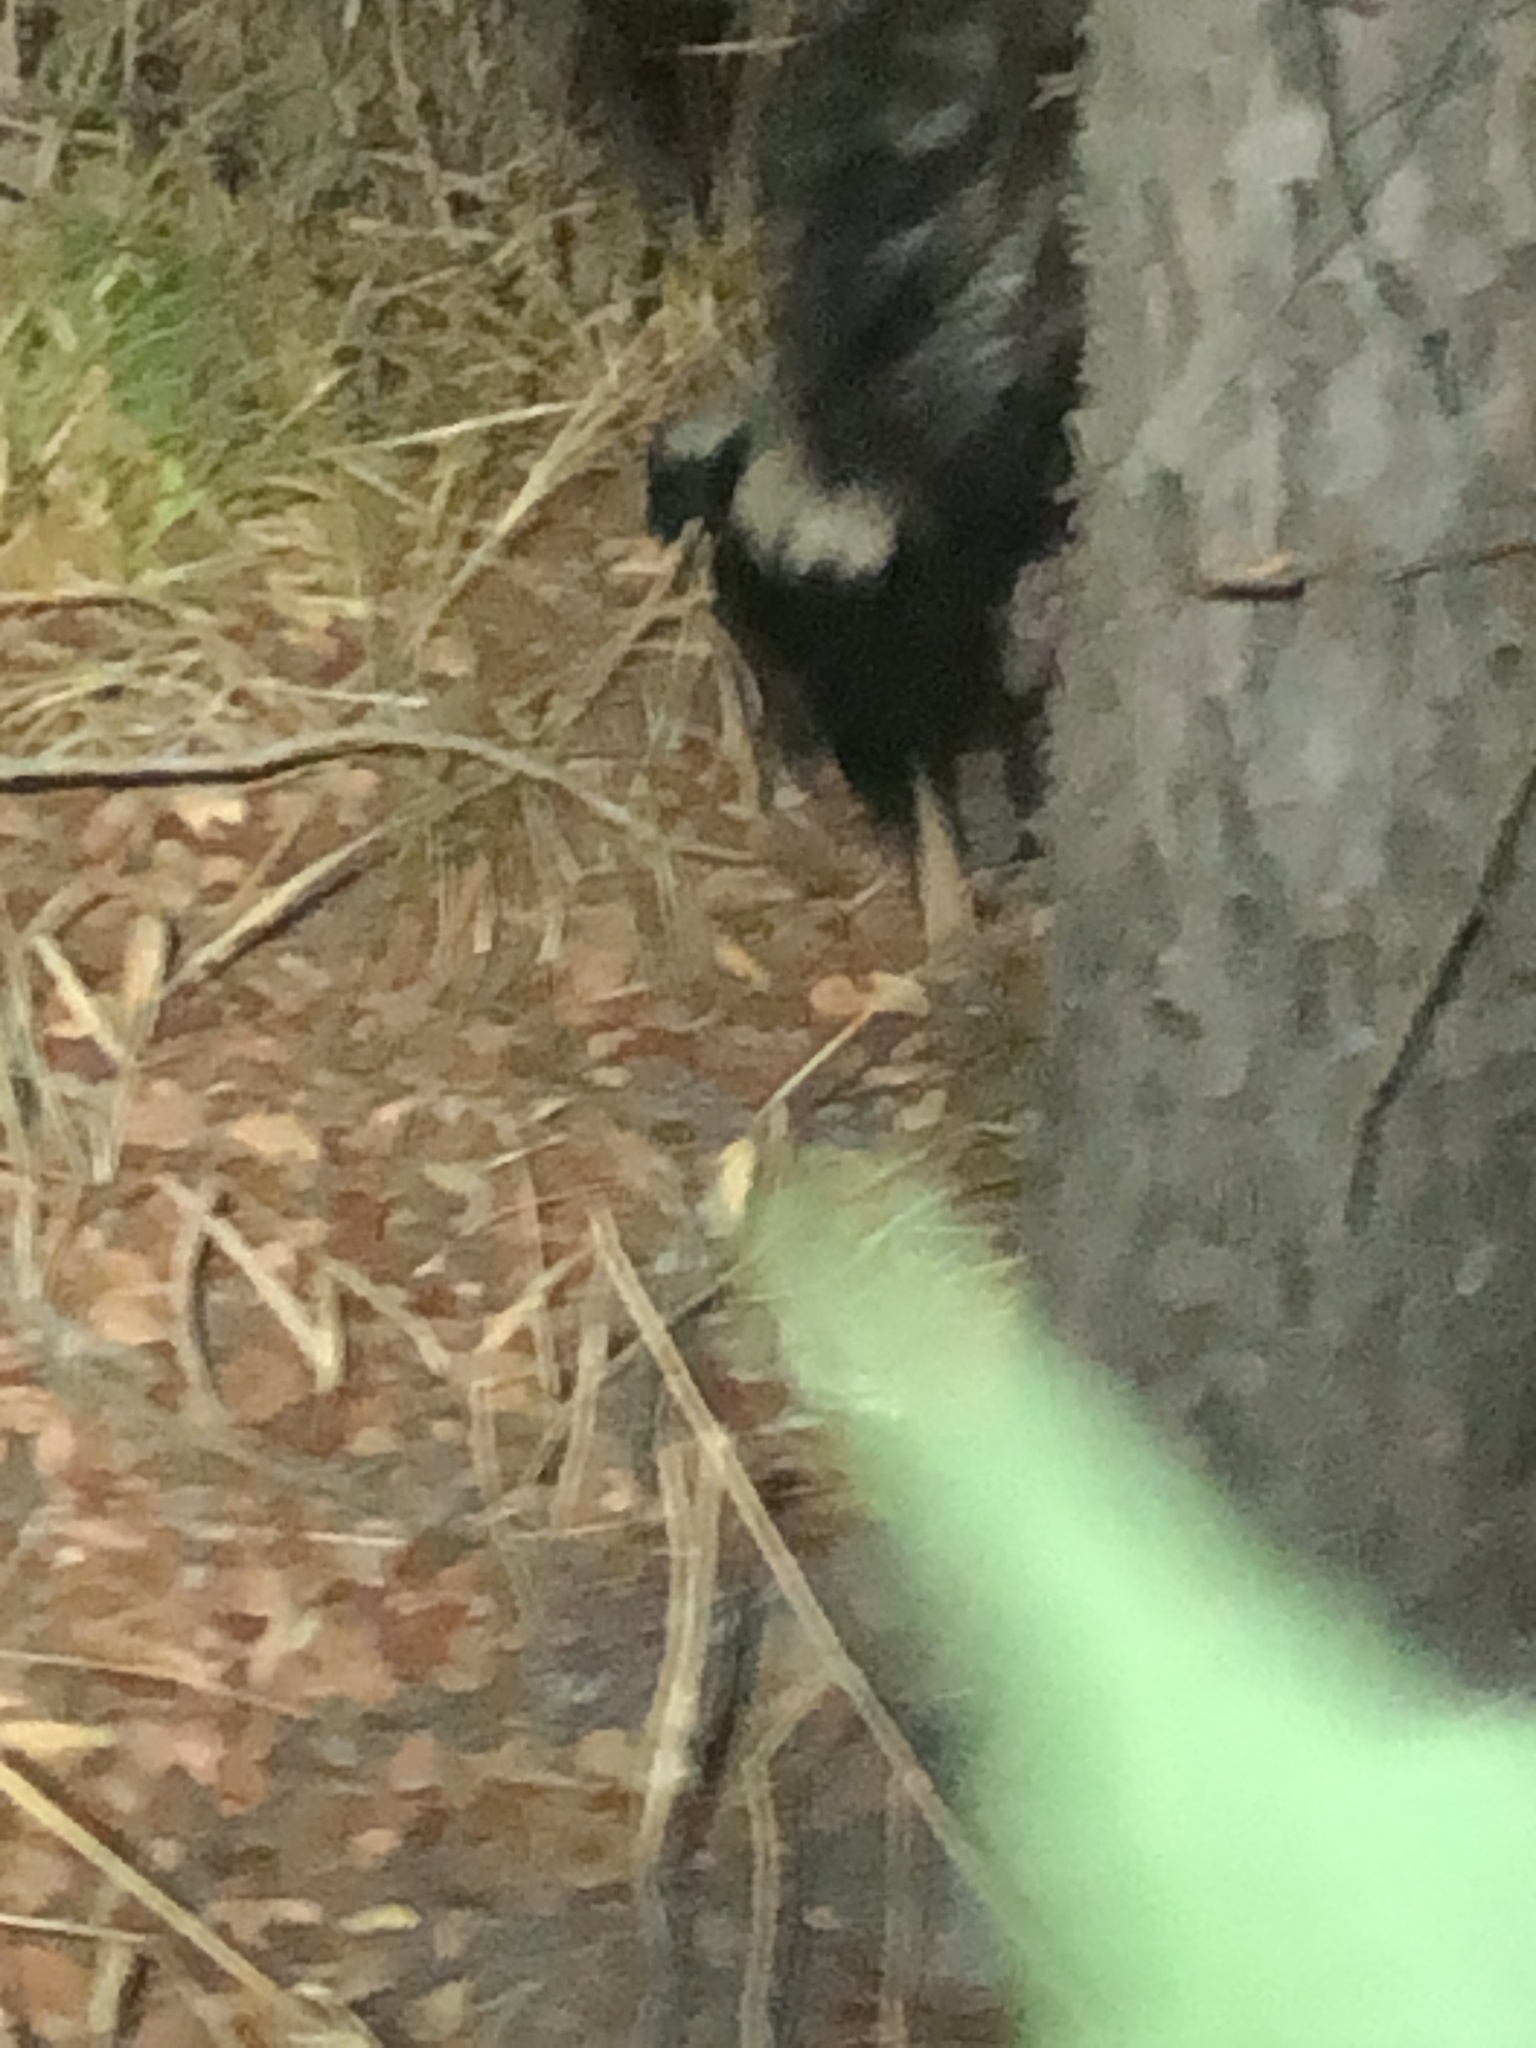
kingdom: Animalia
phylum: Chordata
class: Mammalia
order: Carnivora
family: Mephitidae
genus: Mephitis
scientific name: Mephitis mephitis
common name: Striped skunk
